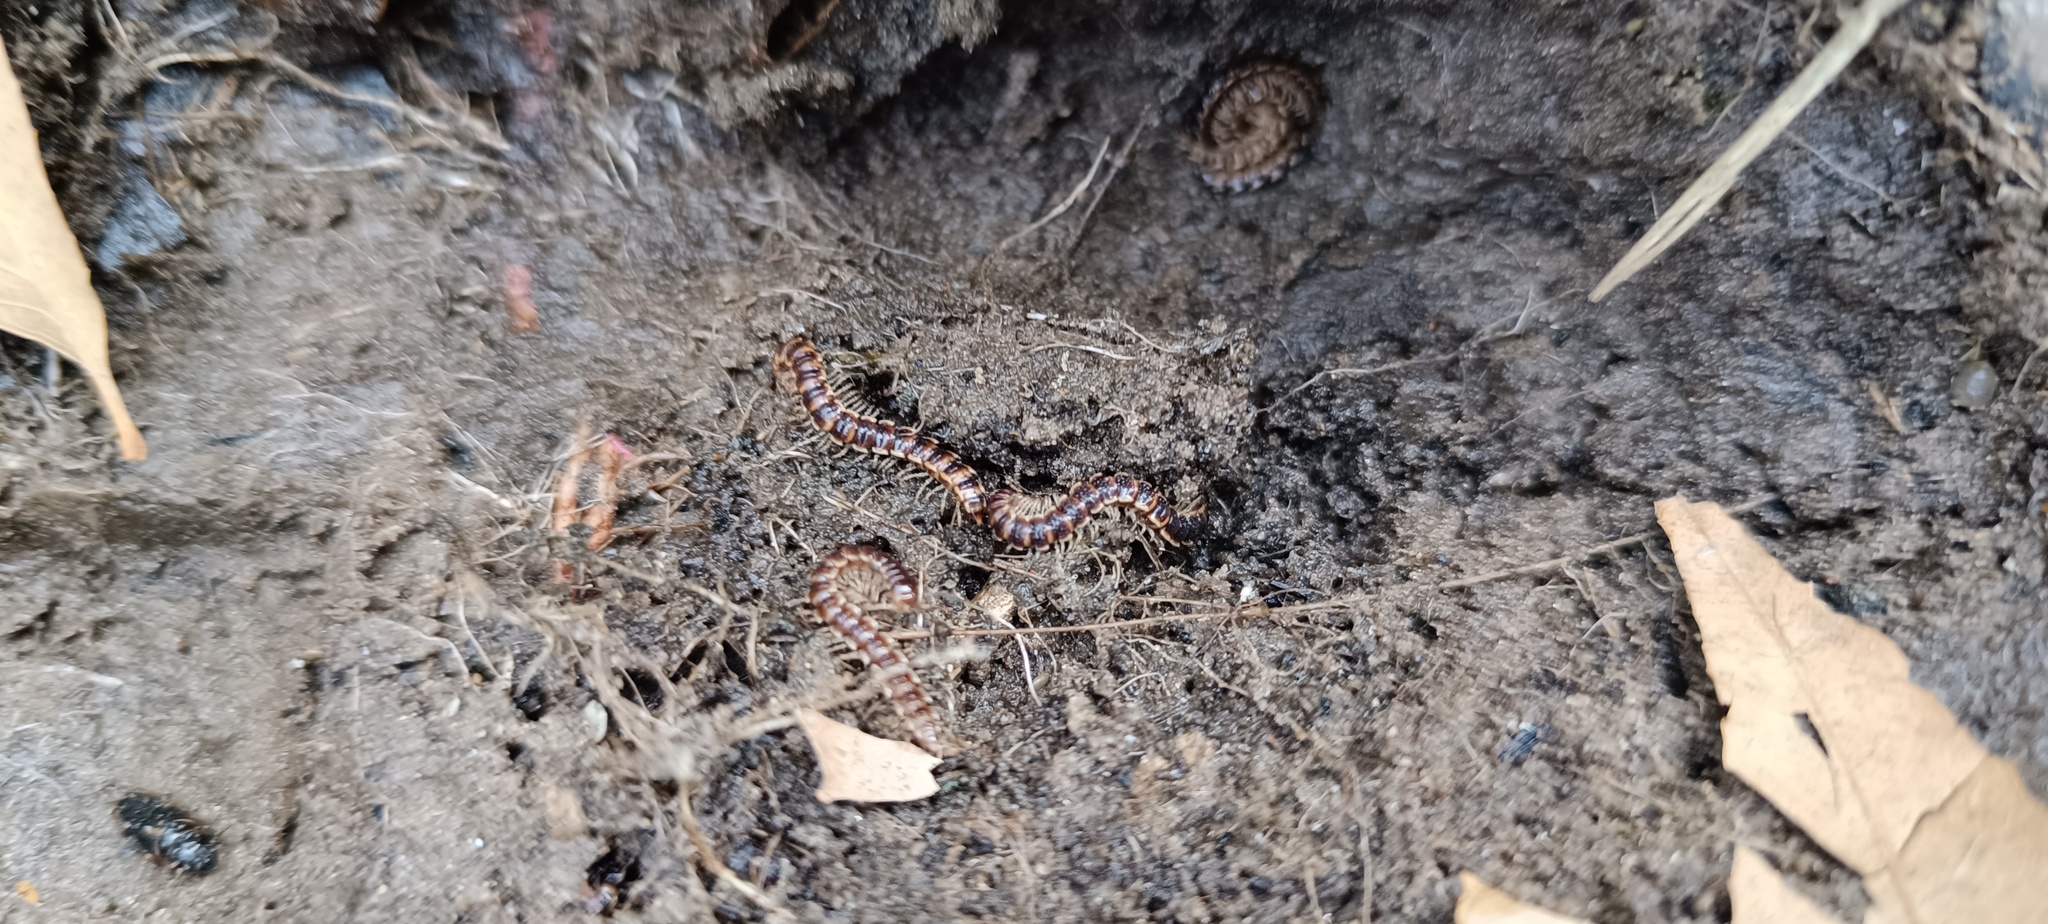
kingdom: Animalia
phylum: Arthropoda
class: Diplopoda
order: Polydesmida
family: Paradoxosomatidae
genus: Oxidus
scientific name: Oxidus gracilis
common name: Greenhouse millipede
